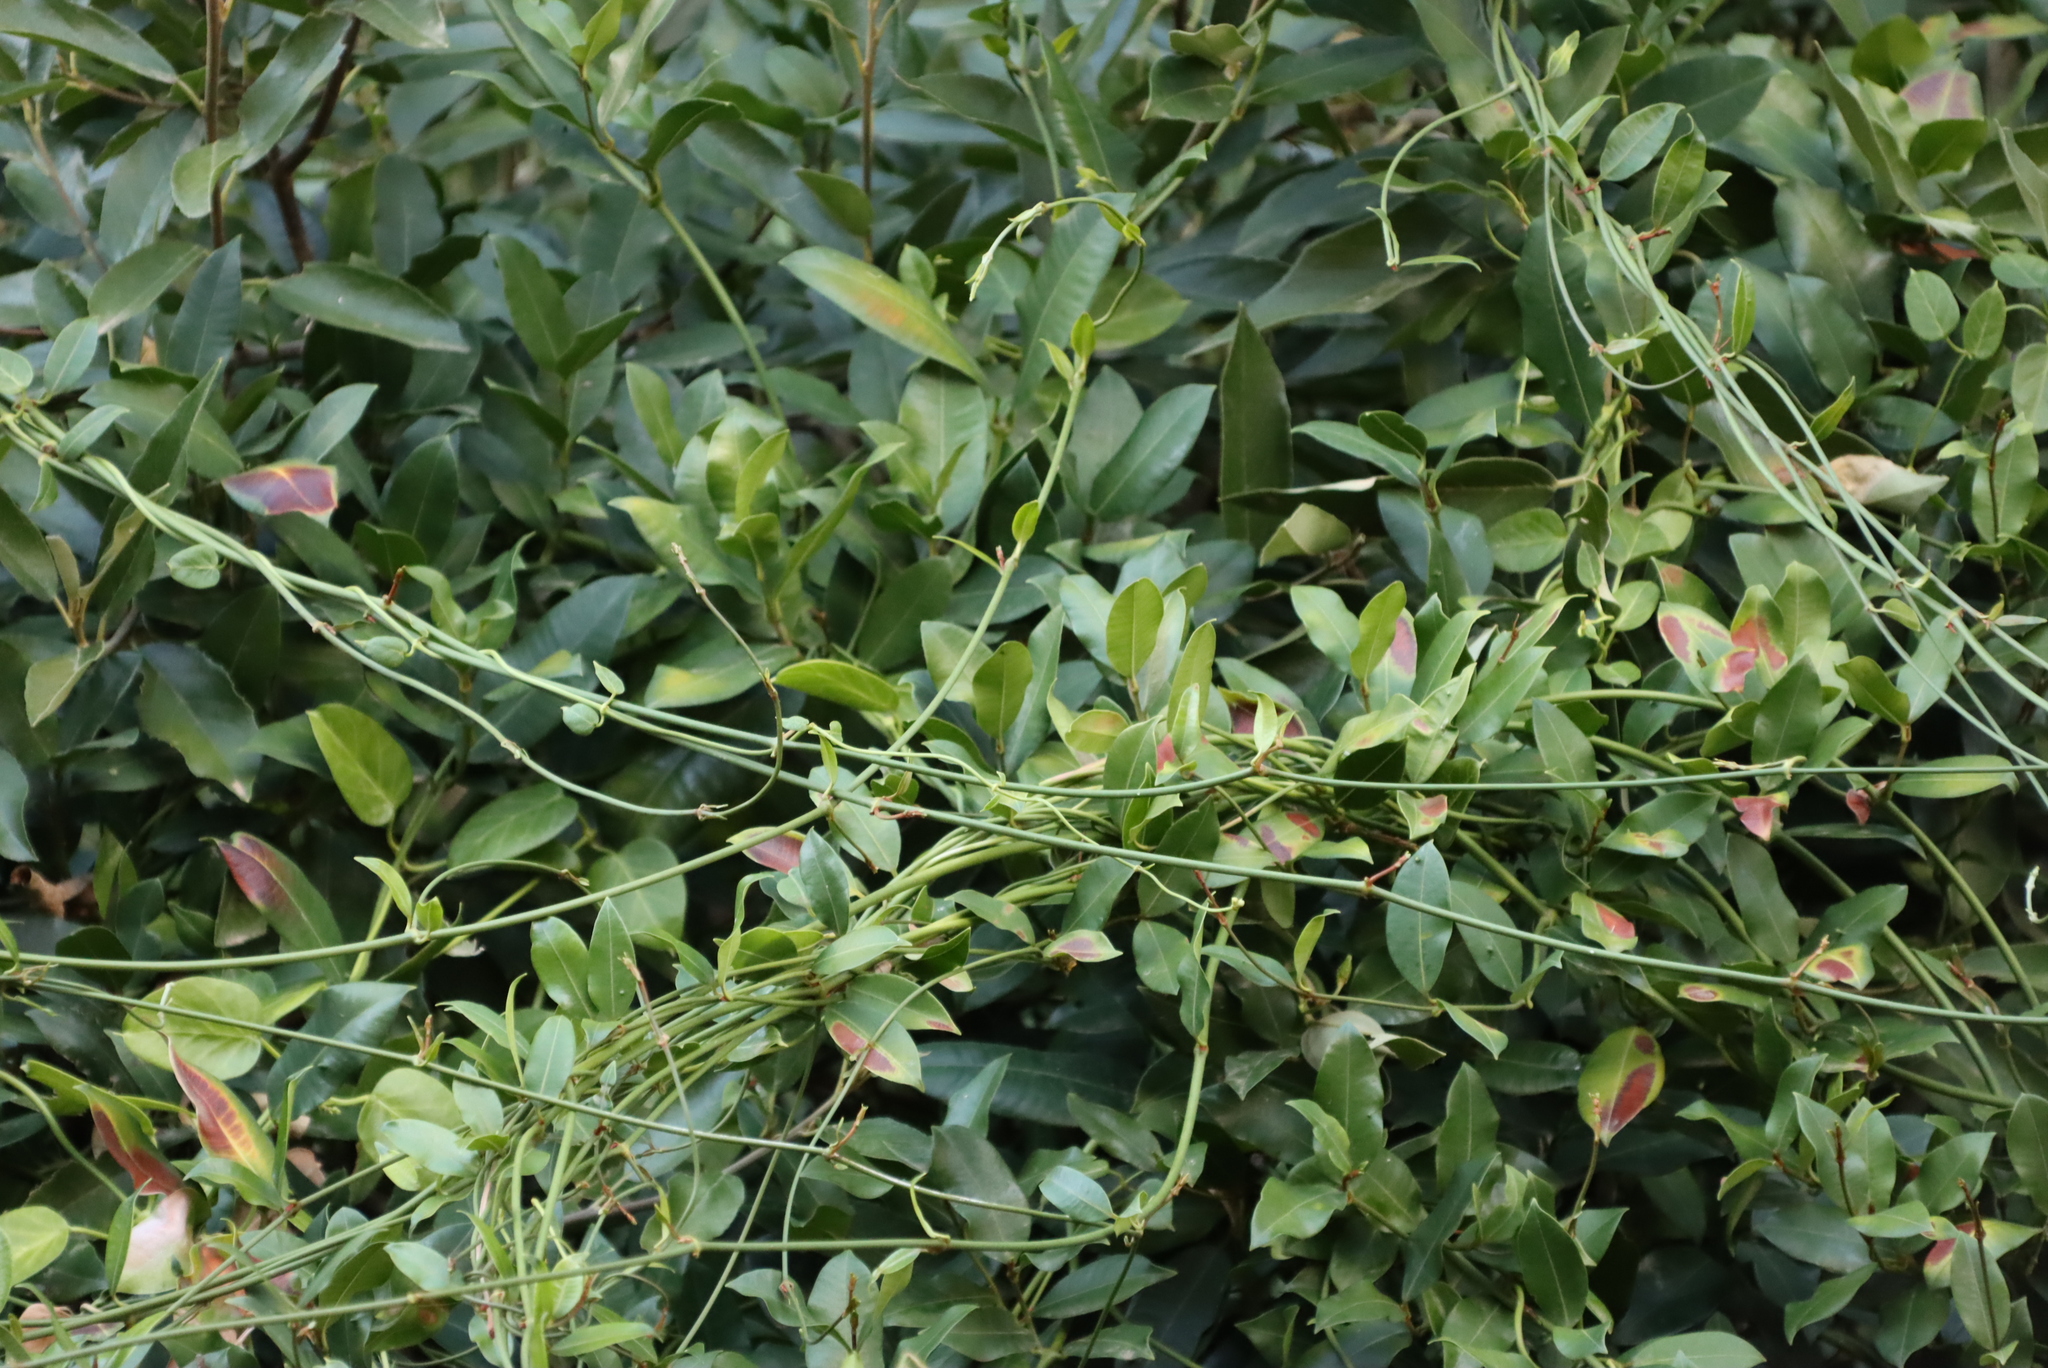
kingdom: Plantae
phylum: Tracheophyta
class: Magnoliopsida
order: Gentianales
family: Apocynaceae
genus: Secamone
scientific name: Secamone alpini
